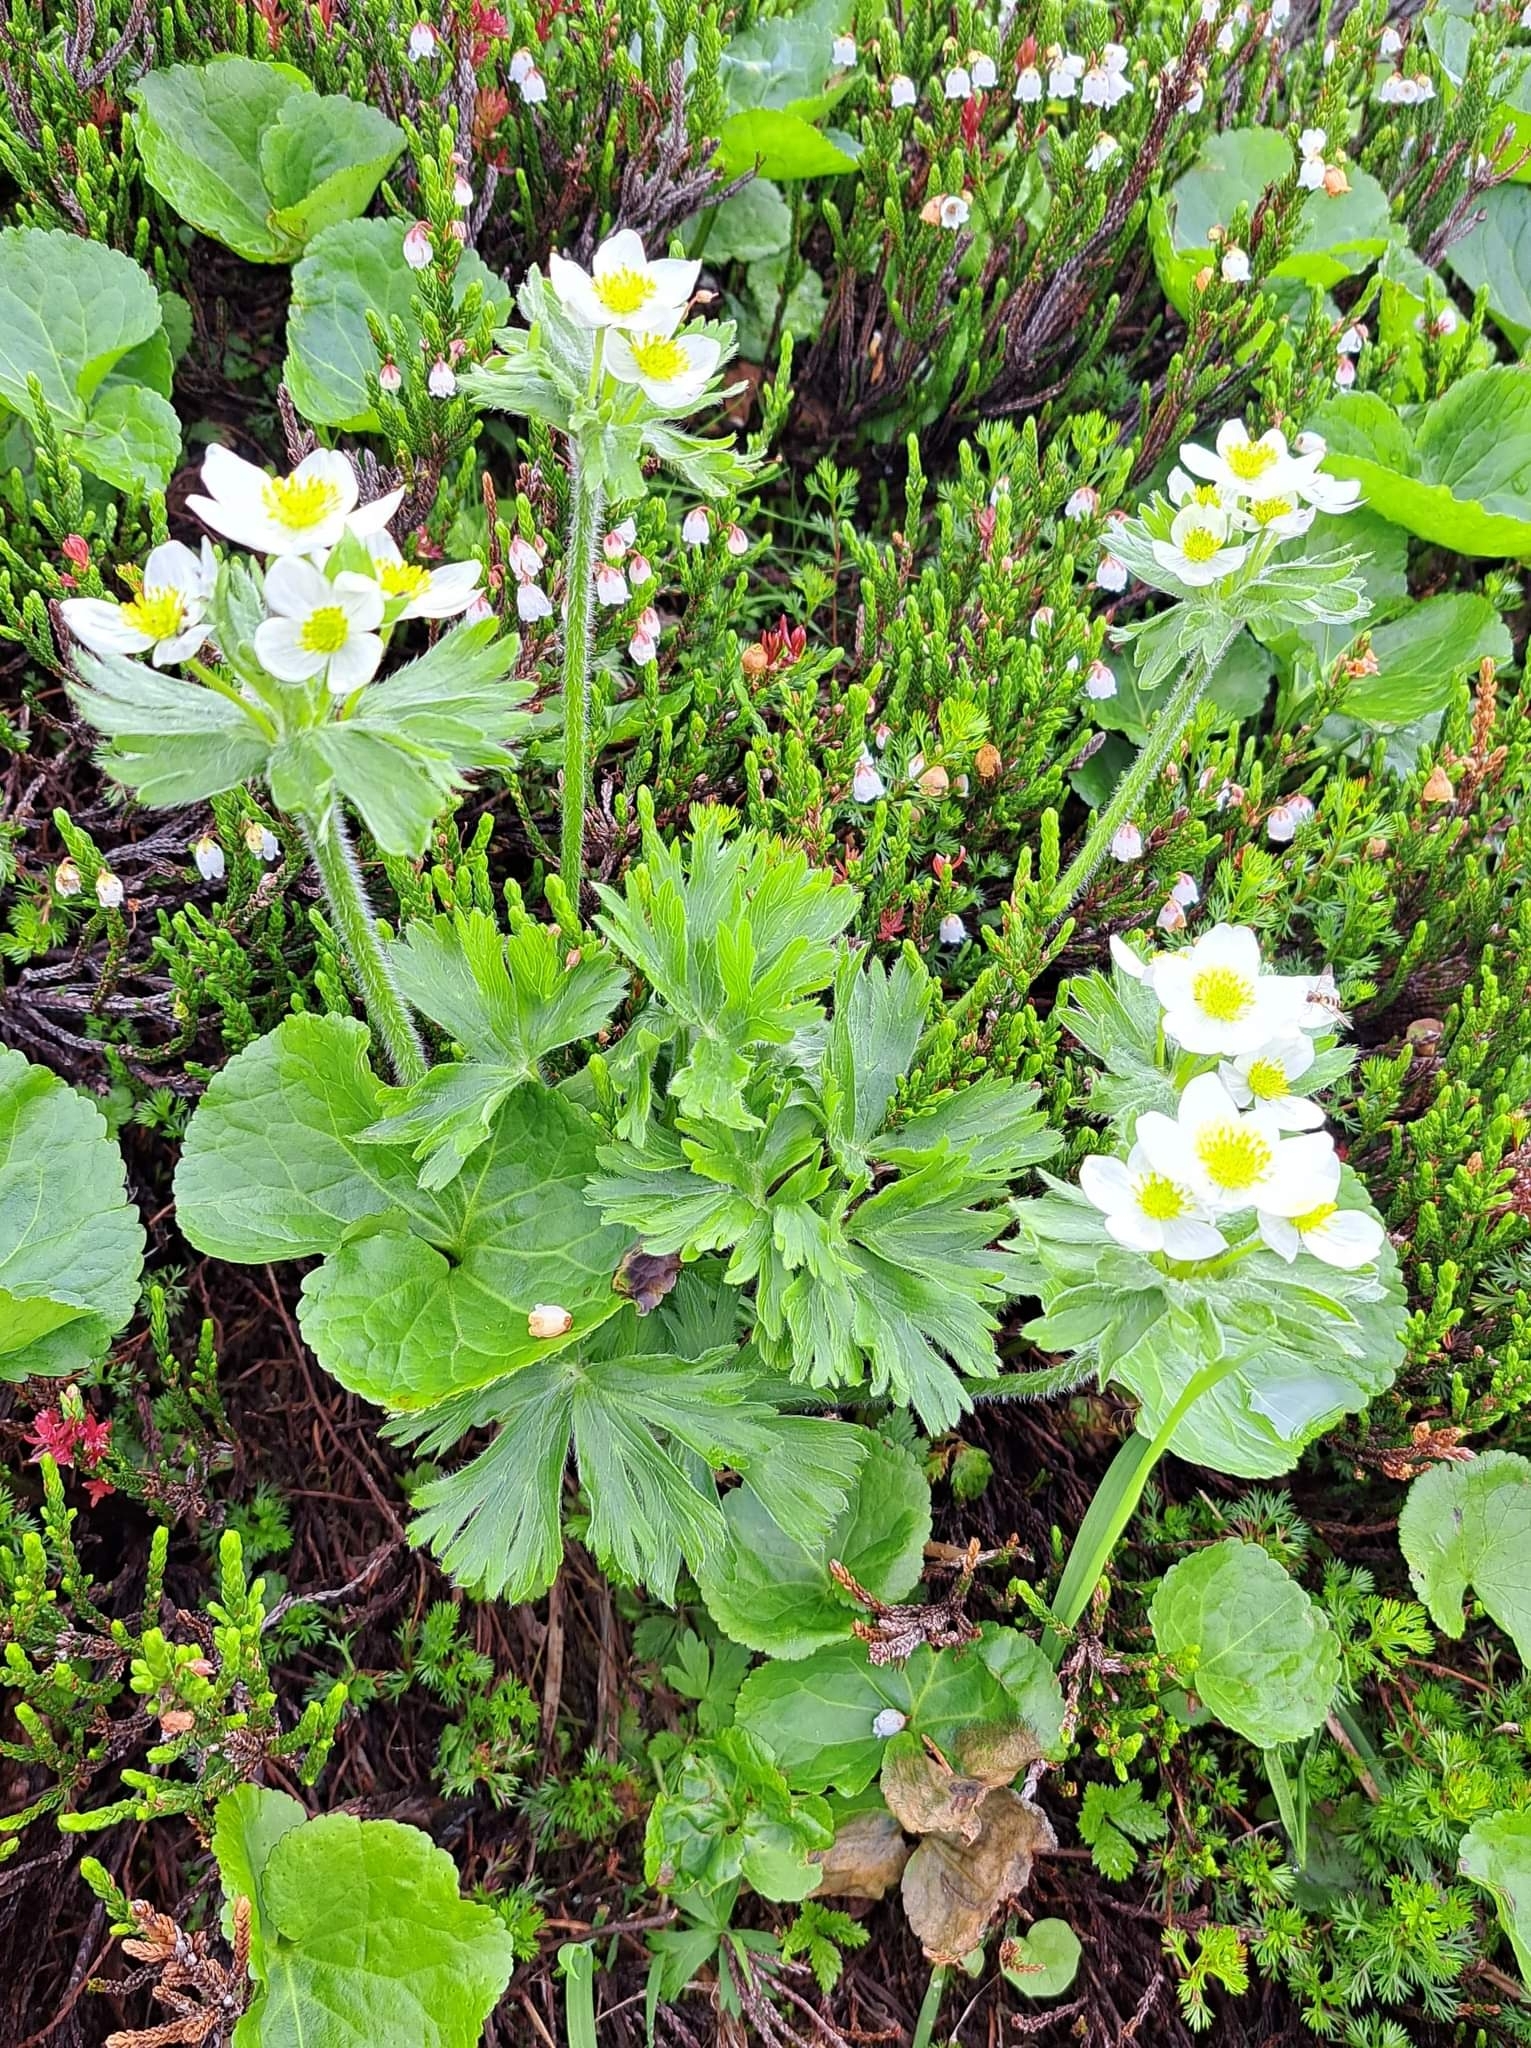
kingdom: Plantae
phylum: Tracheophyta
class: Magnoliopsida
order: Ranunculales
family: Ranunculaceae
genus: Anemonastrum
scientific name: Anemonastrum narcissiflorum
